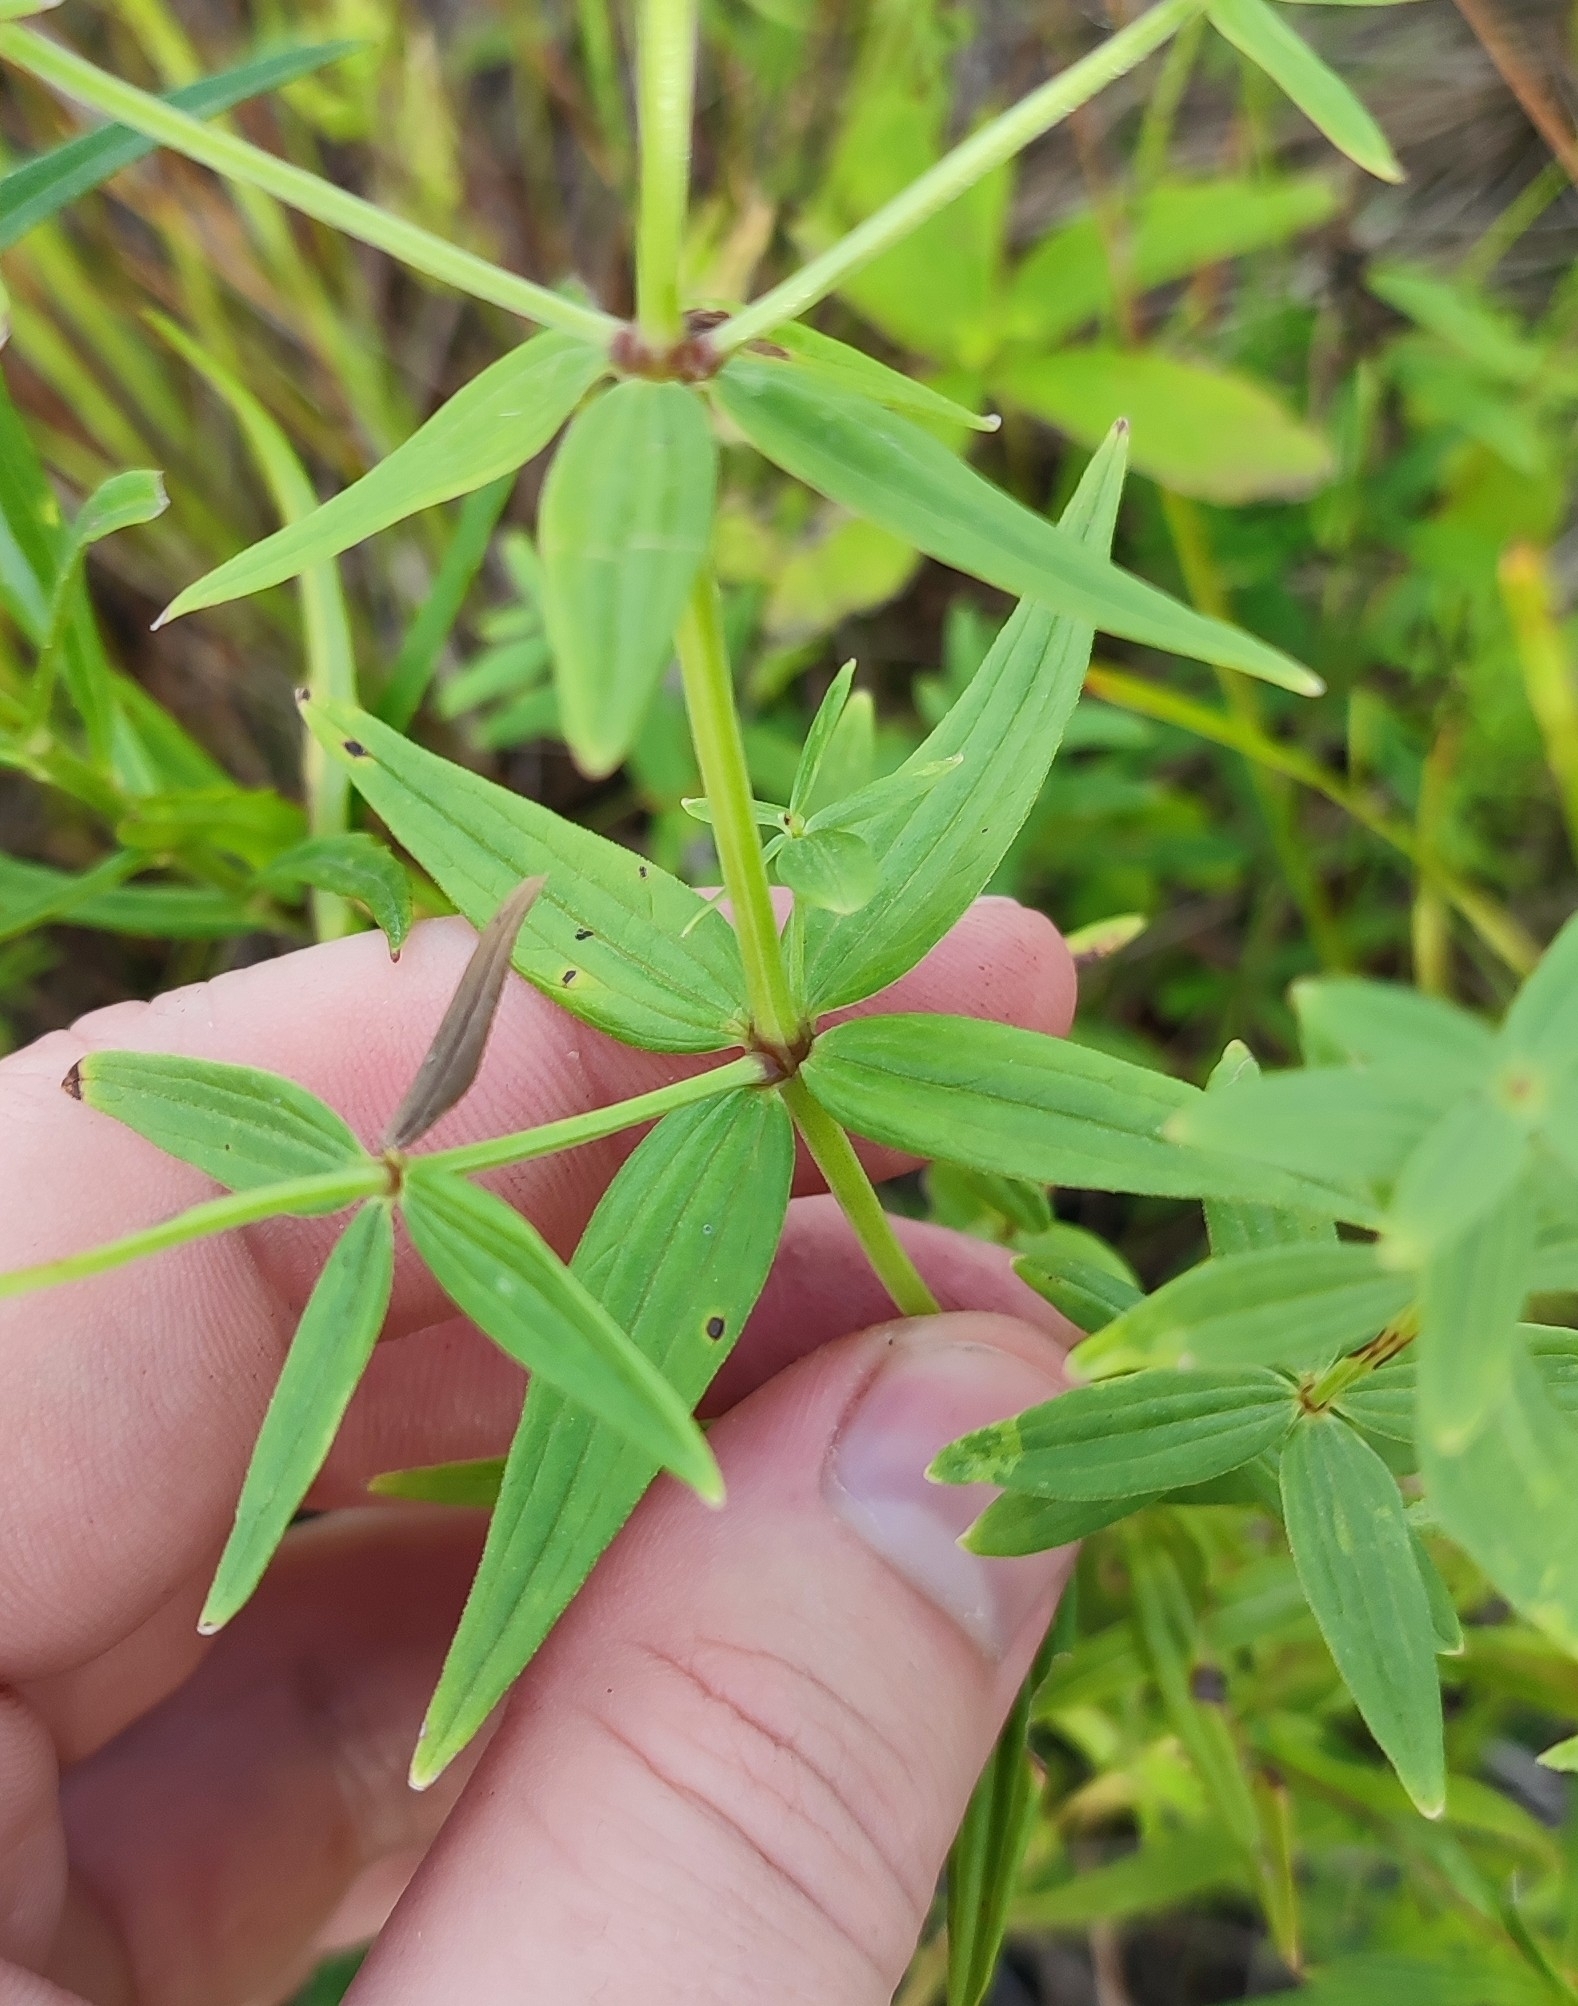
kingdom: Plantae
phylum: Tracheophyta
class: Magnoliopsida
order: Gentianales
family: Rubiaceae
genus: Galium
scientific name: Galium rubioides
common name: European bedstraw
